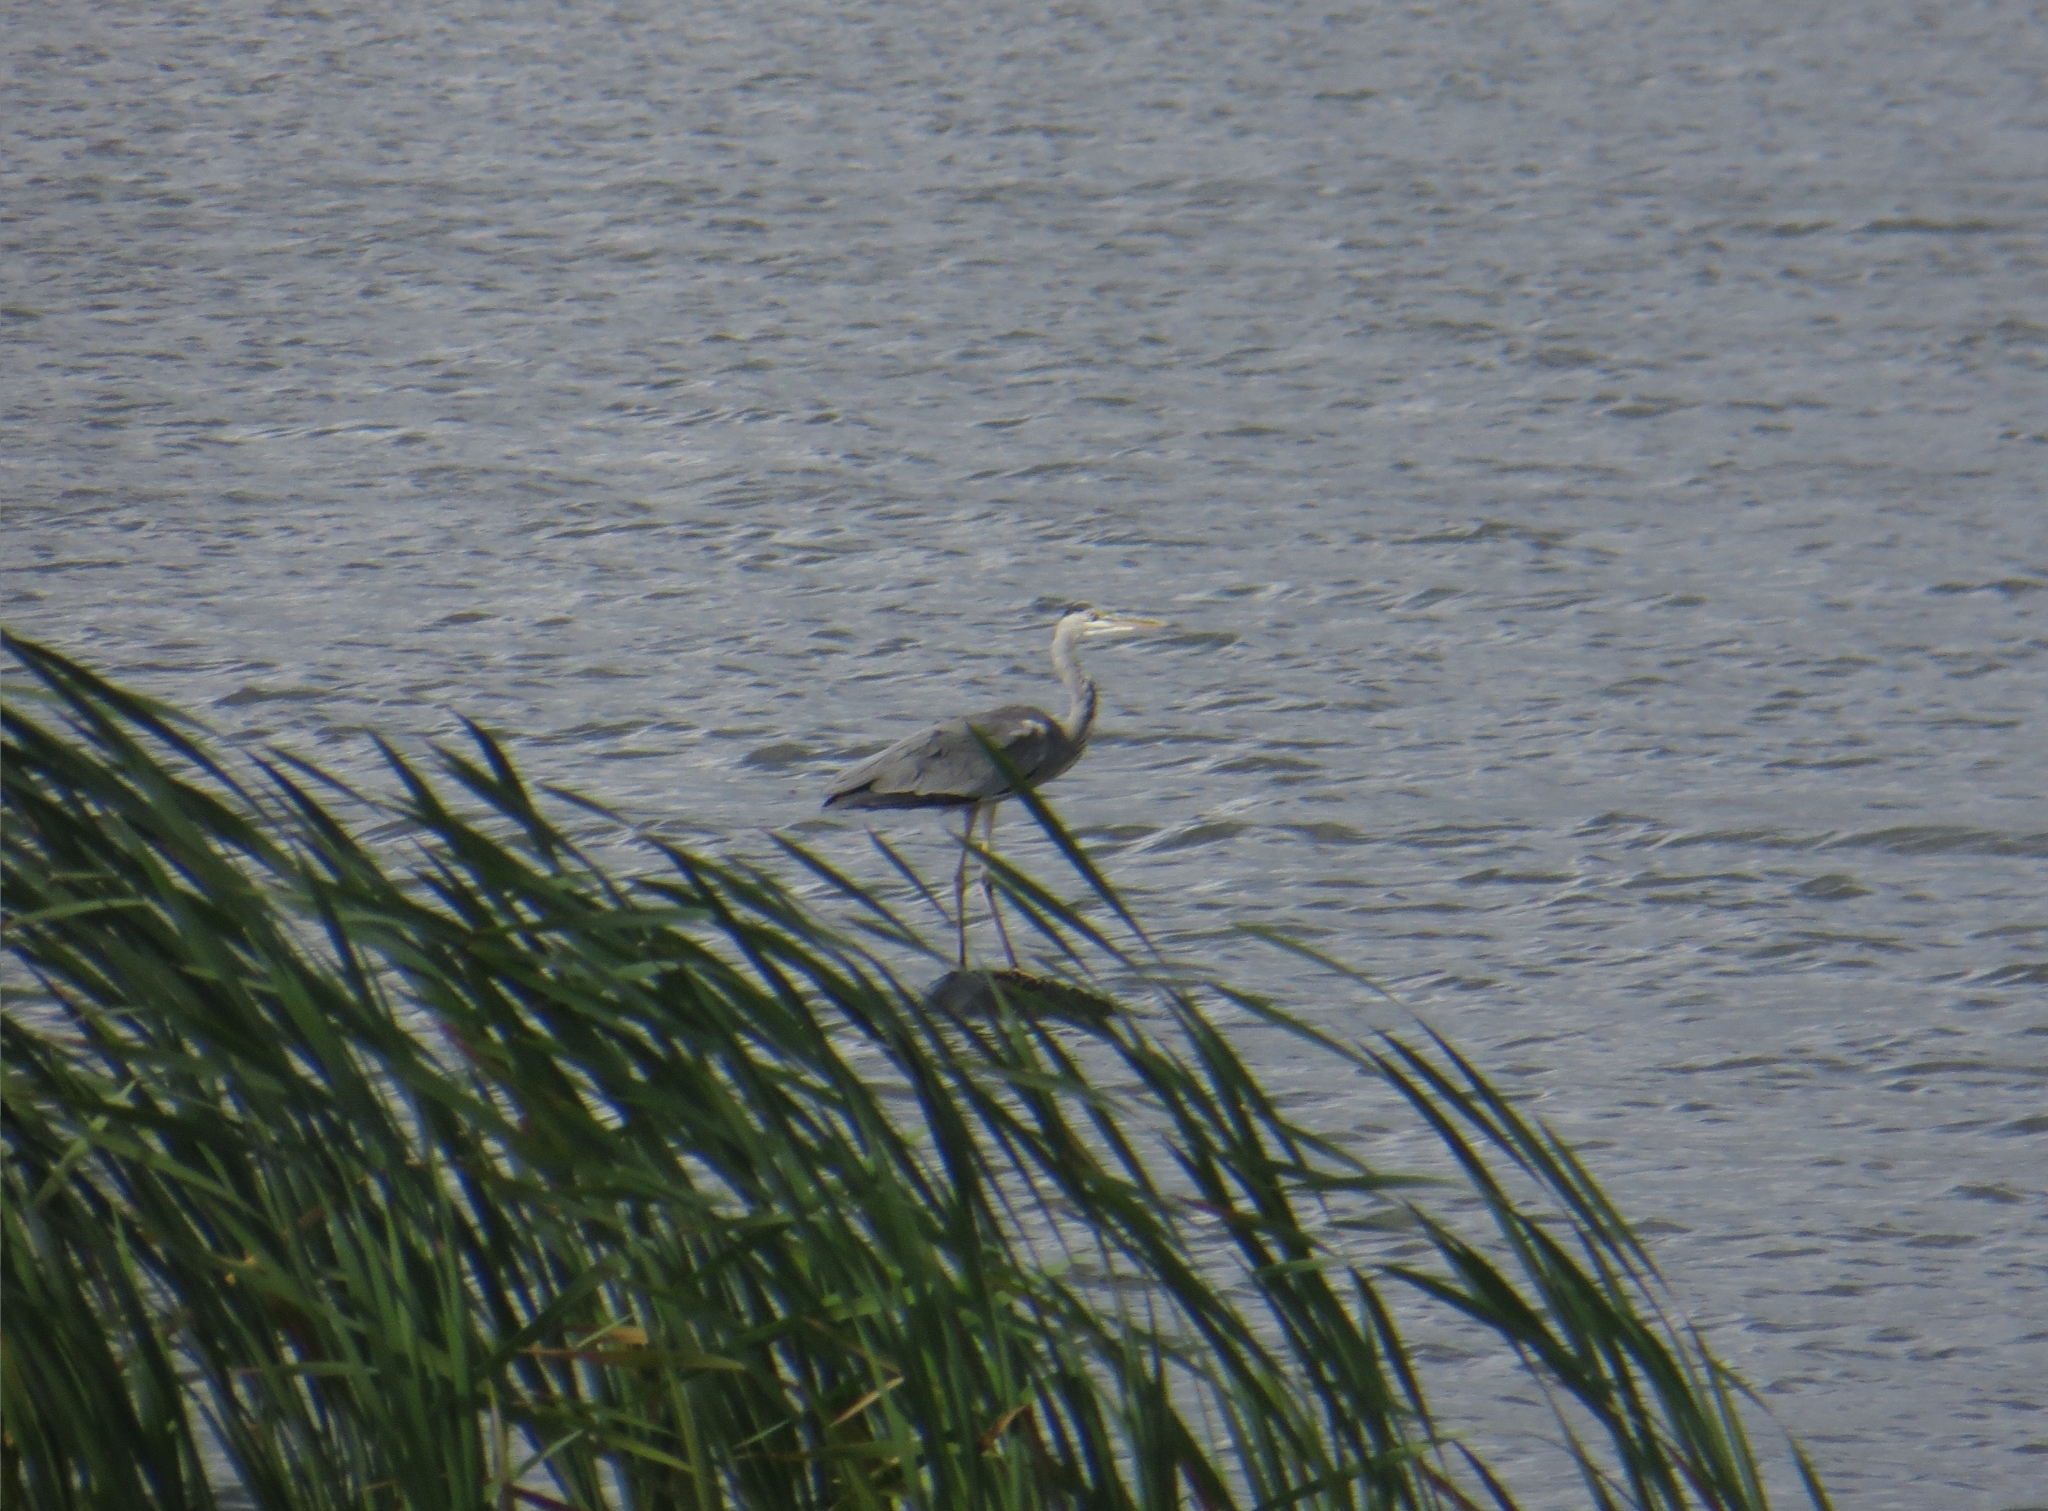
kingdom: Animalia
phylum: Chordata
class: Aves
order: Pelecaniformes
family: Ardeidae
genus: Ardea
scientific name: Ardea cinerea
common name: Grey heron
